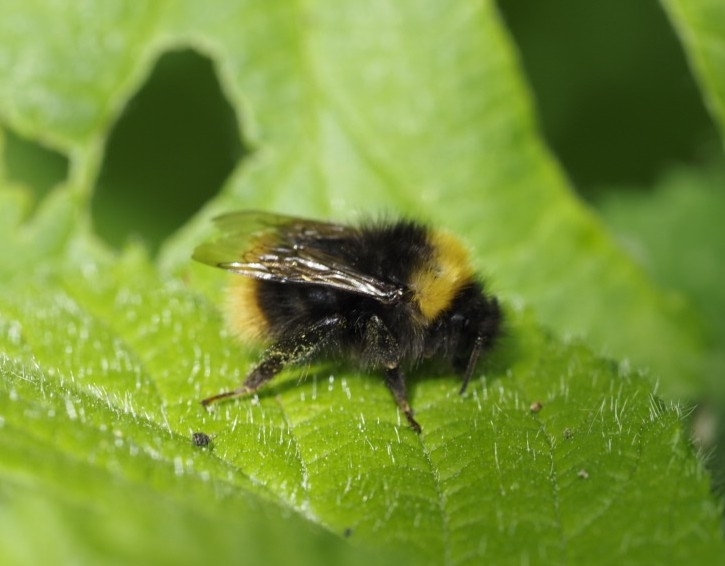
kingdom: Animalia
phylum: Arthropoda
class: Insecta
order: Hymenoptera
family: Apidae
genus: Bombus
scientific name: Bombus pratorum
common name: Early humble-bee
